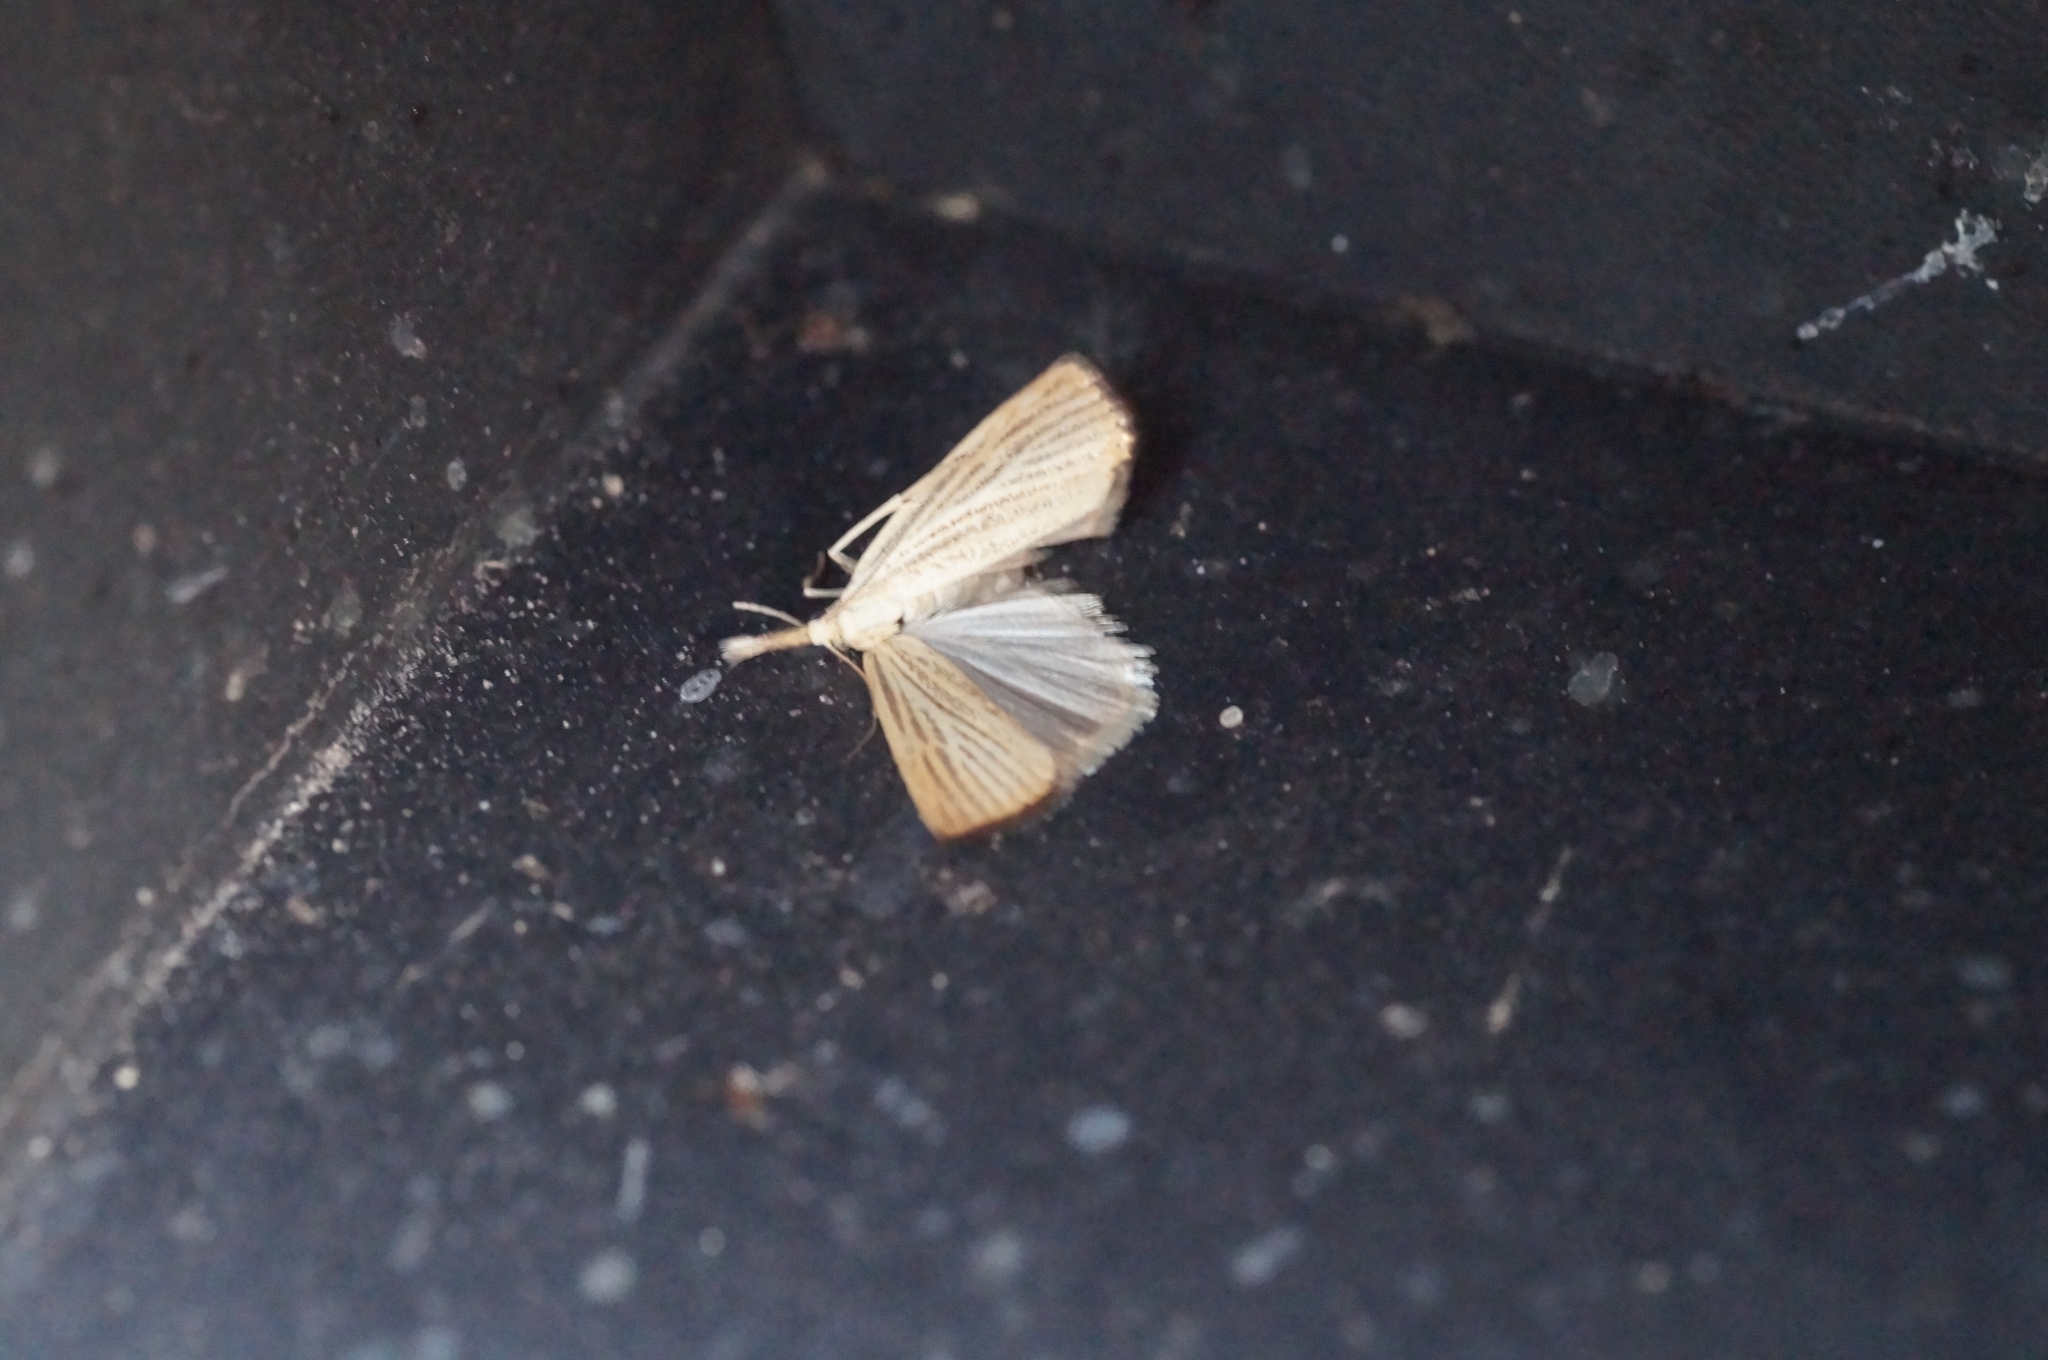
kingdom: Animalia
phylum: Arthropoda
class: Insecta
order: Lepidoptera
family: Crambidae
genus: Agriphila
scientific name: Agriphila straminella
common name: Straw grass-veneer
